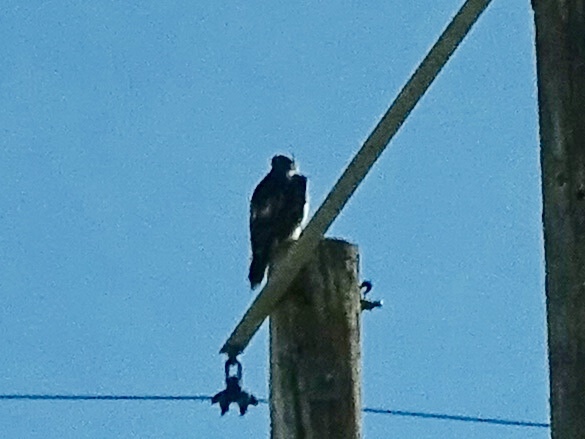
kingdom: Animalia
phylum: Chordata
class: Aves
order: Accipitriformes
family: Accipitridae
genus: Buteo
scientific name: Buteo jamaicensis
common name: Red-tailed hawk
